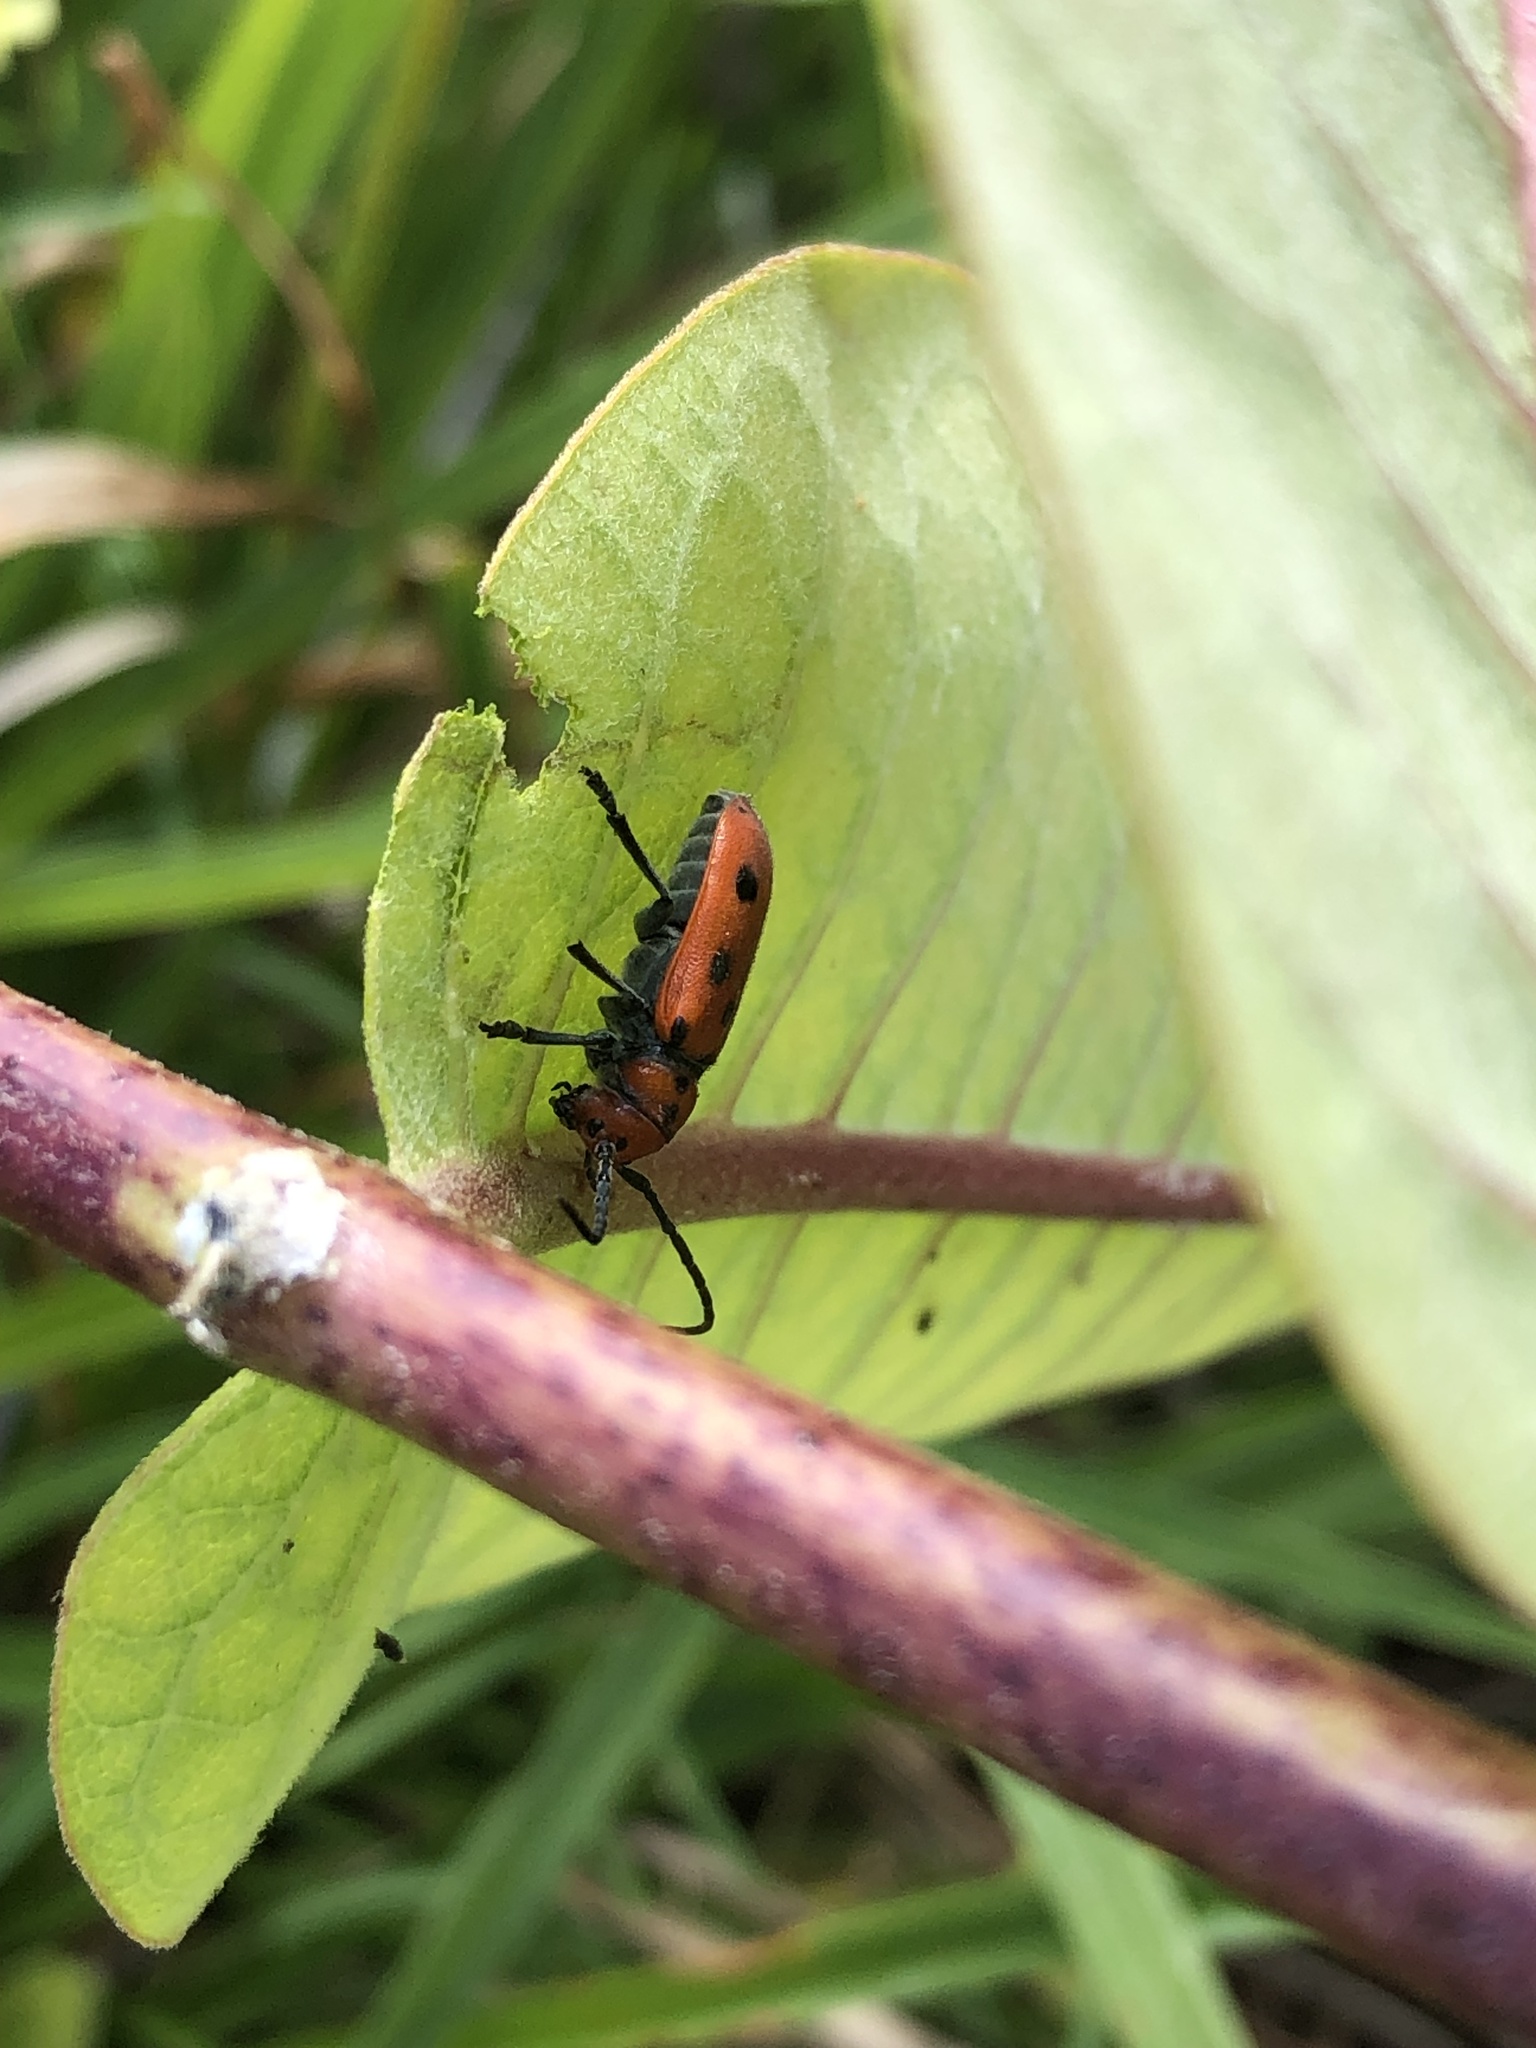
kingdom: Animalia
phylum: Arthropoda
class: Insecta
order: Coleoptera
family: Cerambycidae
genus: Tetraopes
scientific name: Tetraopes tetrophthalmus
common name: Red milkweed beetle
